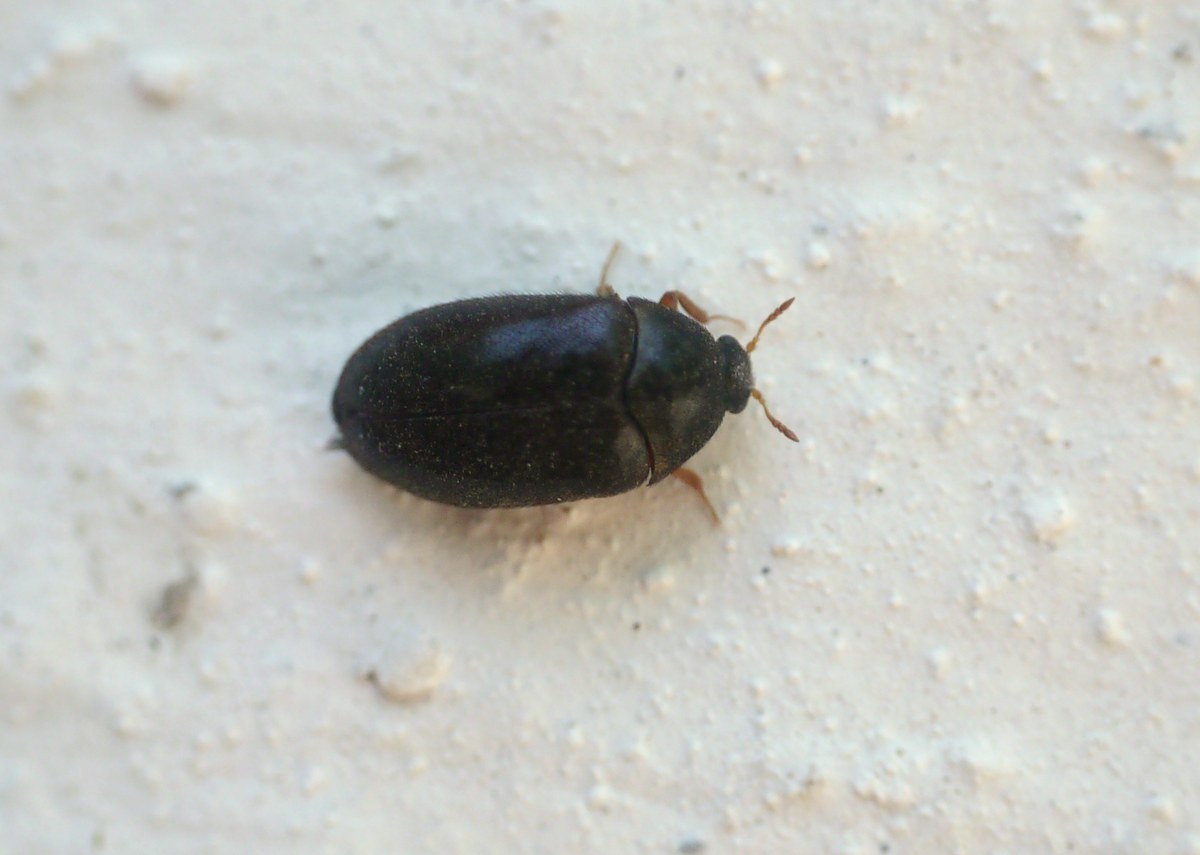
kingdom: Animalia
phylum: Arthropoda
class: Insecta
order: Coleoptera
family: Dermestidae
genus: Attagenus
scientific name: Attagenus schaefferi
